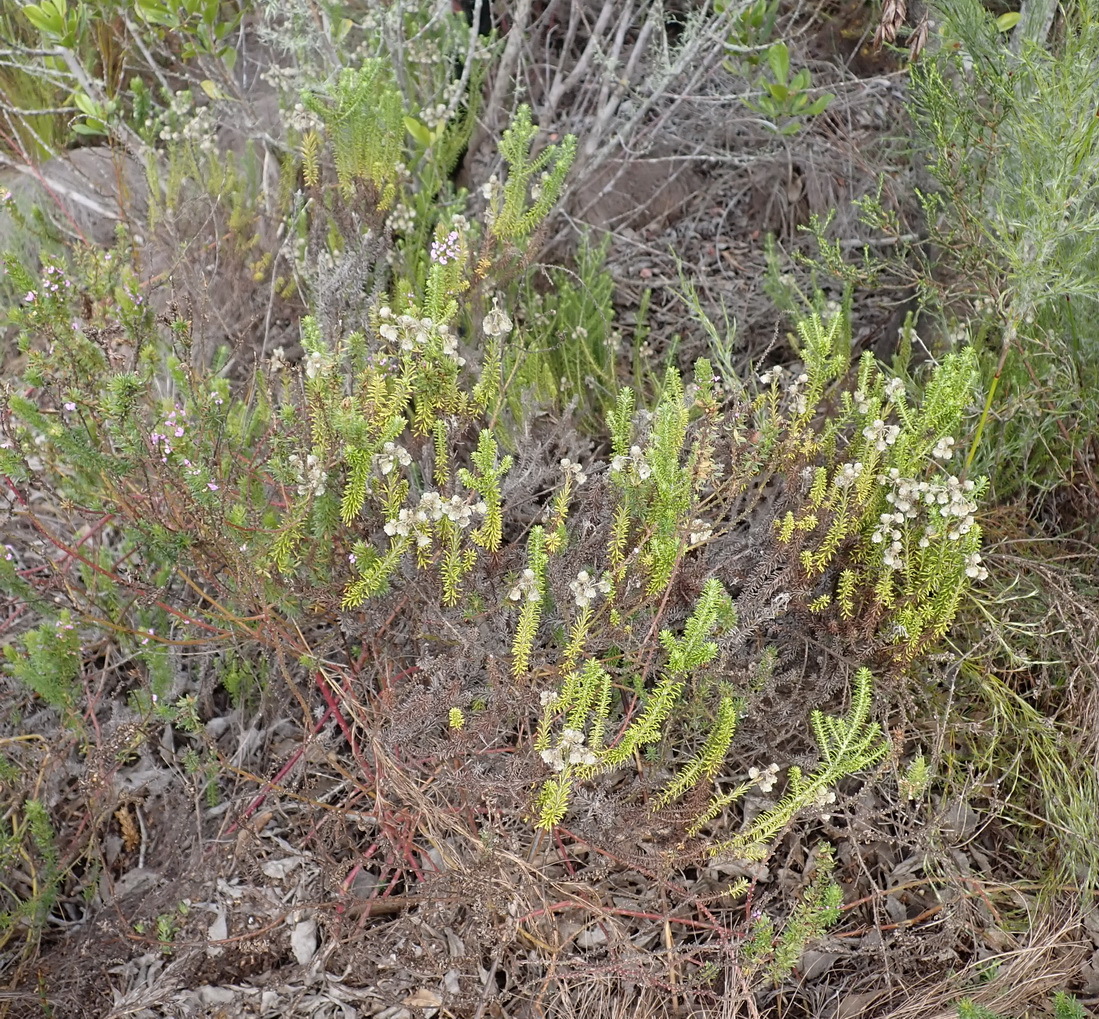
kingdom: Plantae
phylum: Tracheophyta
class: Magnoliopsida
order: Asterales
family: Asteraceae
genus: Helichrysum
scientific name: Helichrysum teretifolium
